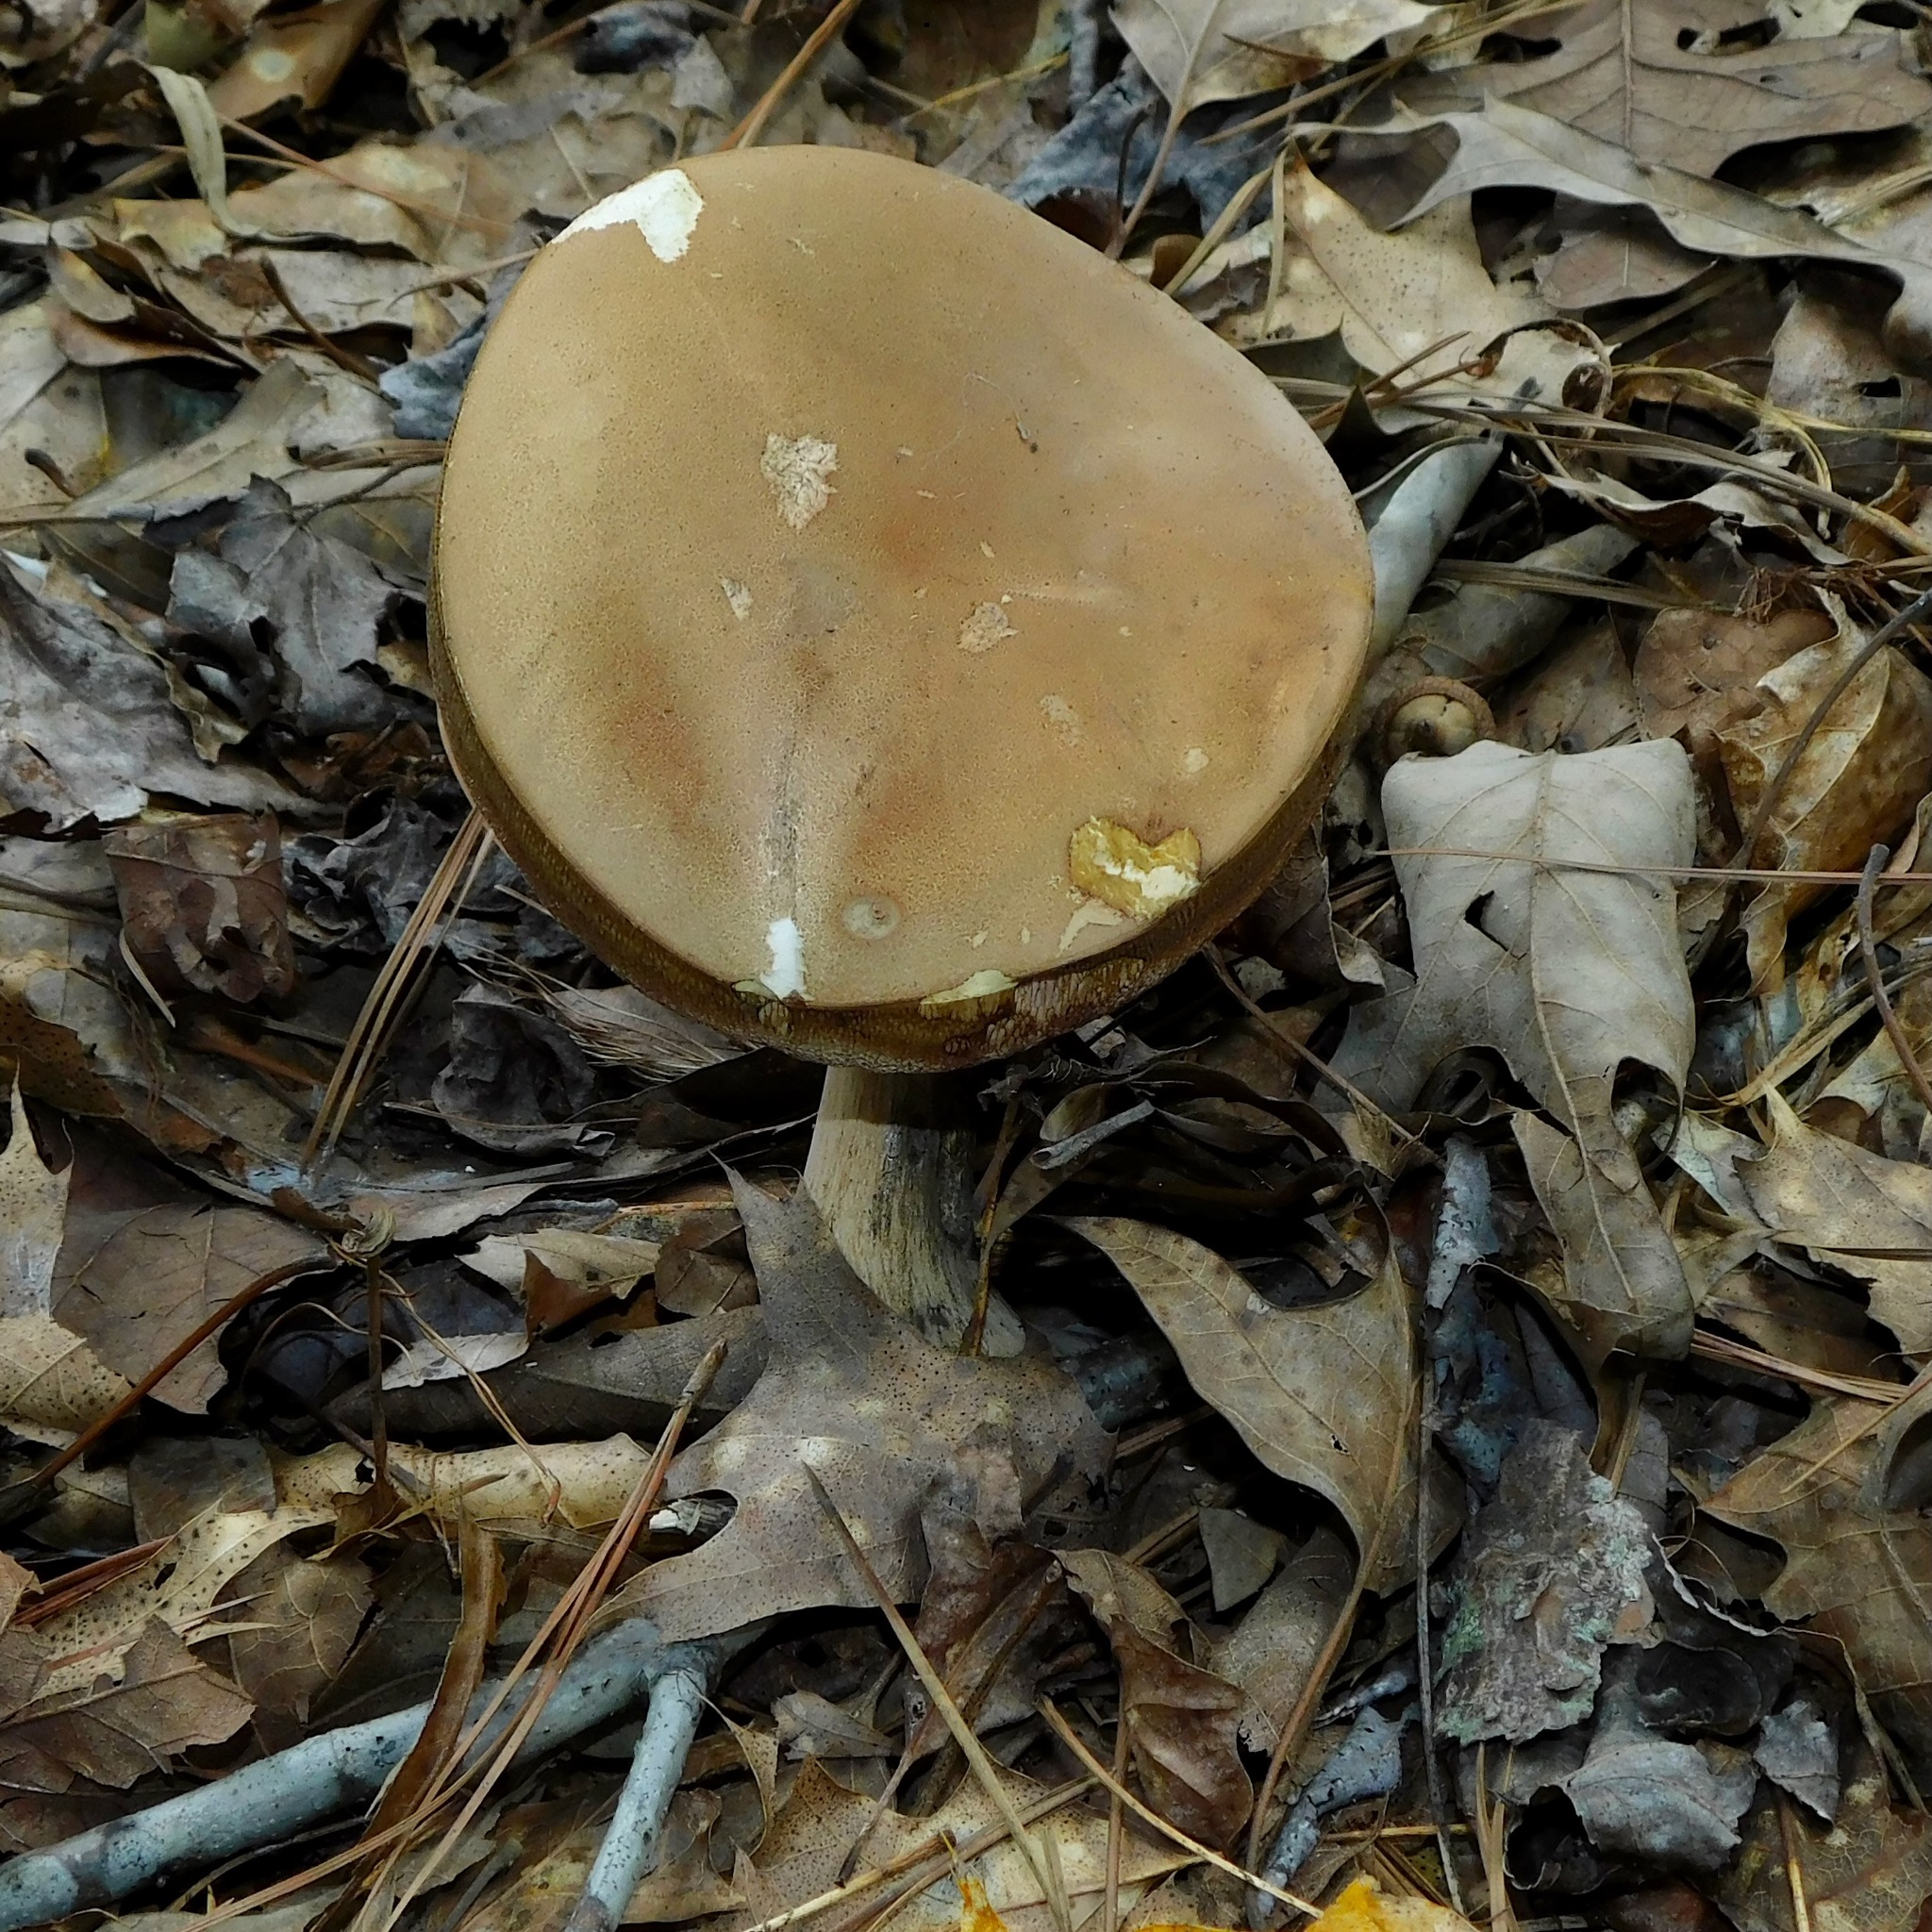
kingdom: Fungi
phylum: Basidiomycota
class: Agaricomycetes
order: Boletales
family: Boletaceae
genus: Tylopilus
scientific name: Tylopilus rubrobrunneus
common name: Reddish brown bitter bolete
